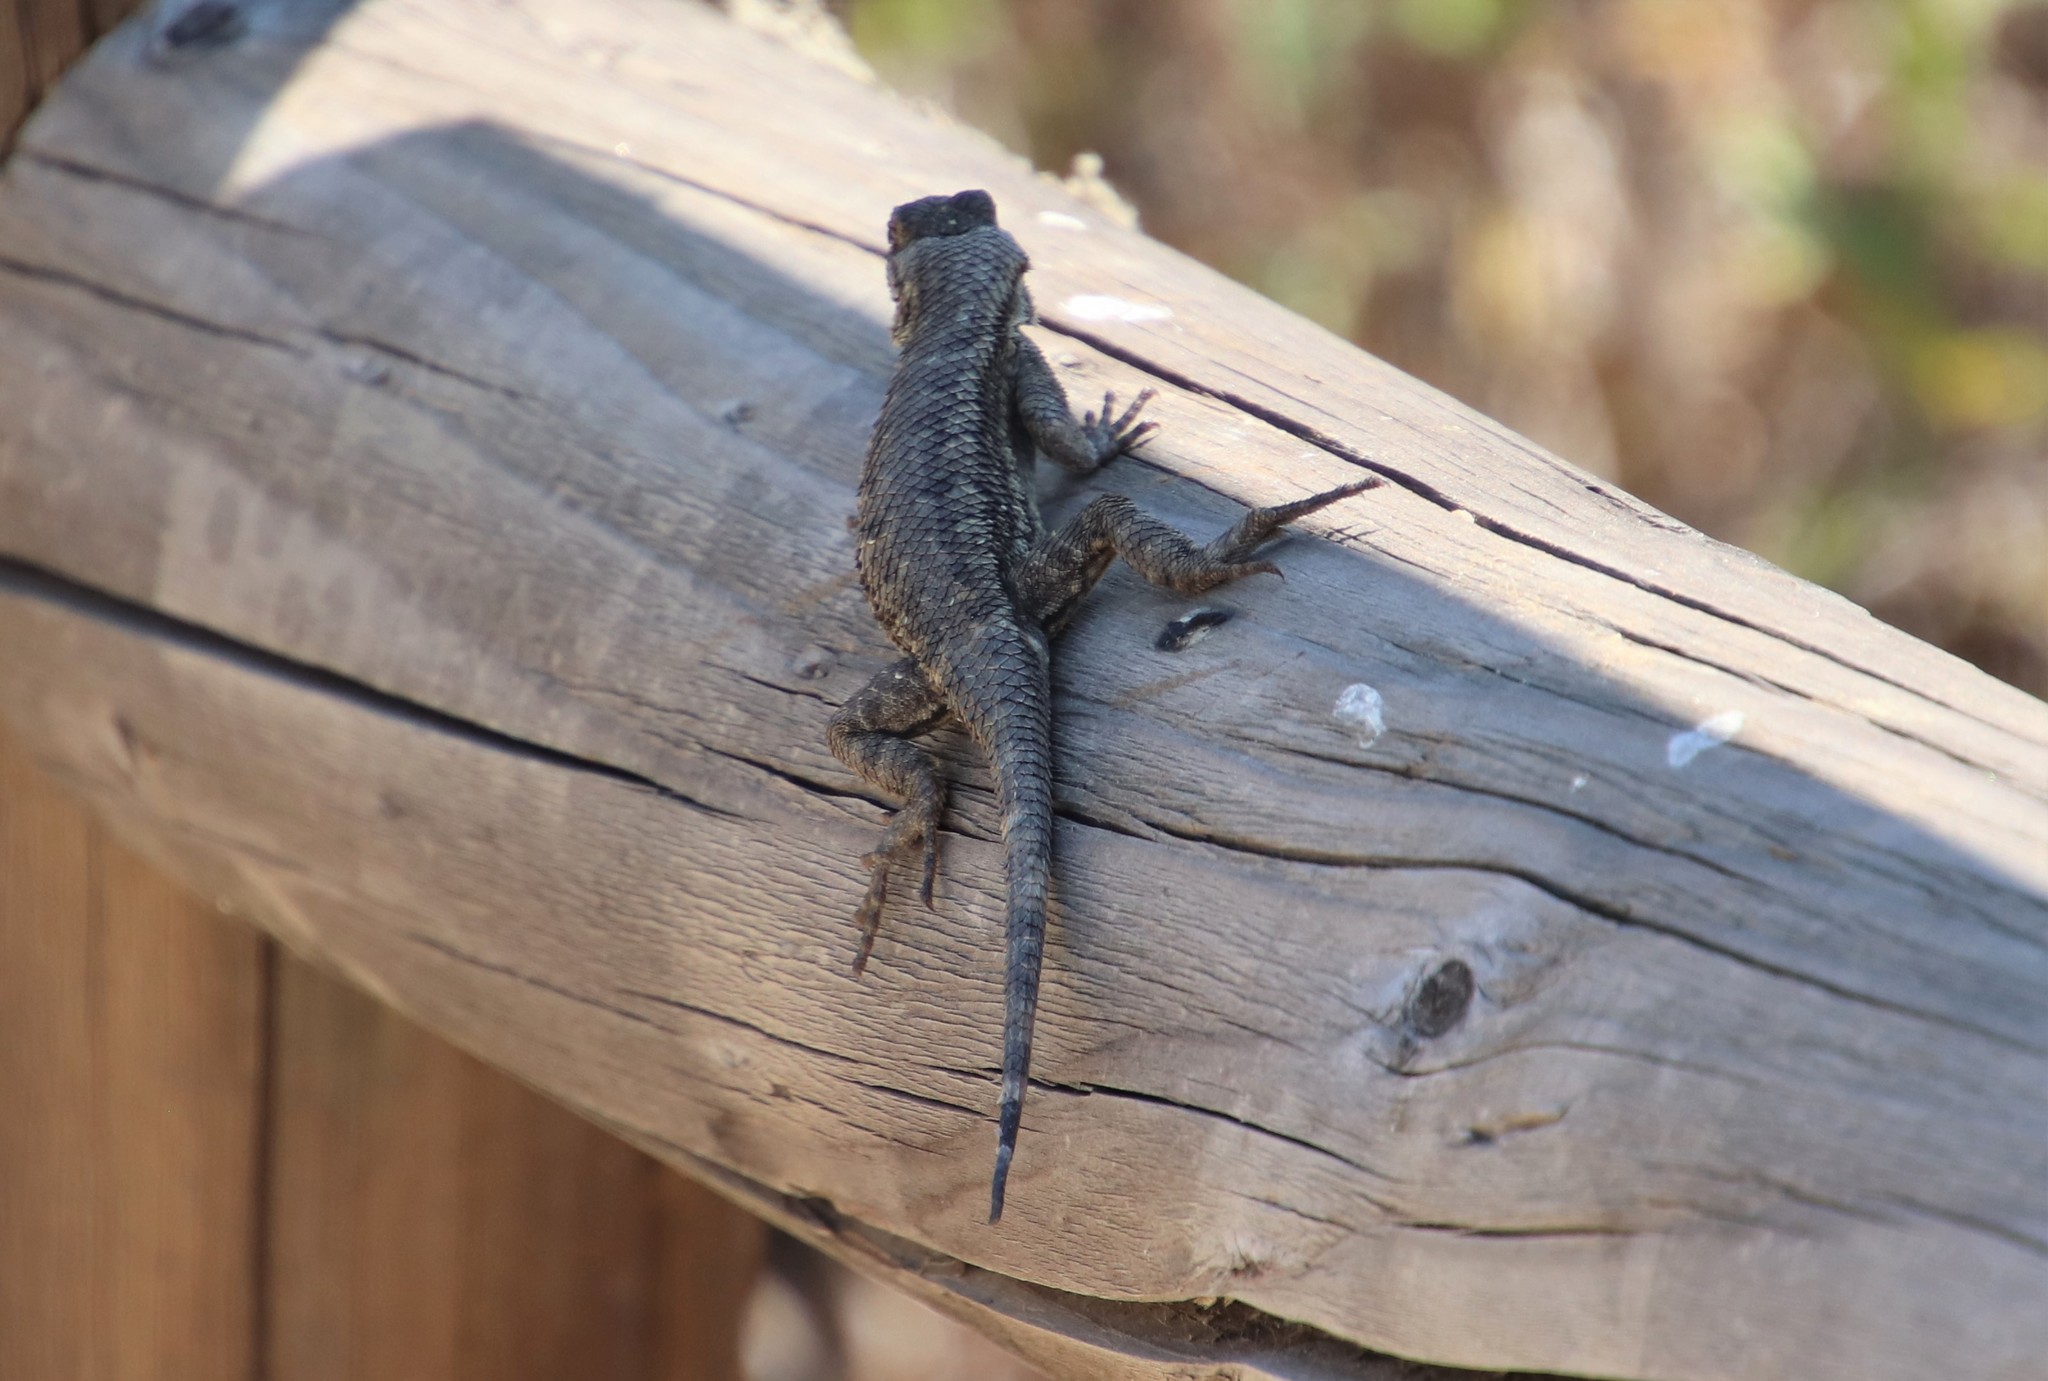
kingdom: Animalia
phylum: Chordata
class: Squamata
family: Phrynosomatidae
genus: Sceloporus
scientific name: Sceloporus occidentalis
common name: Western fence lizard
